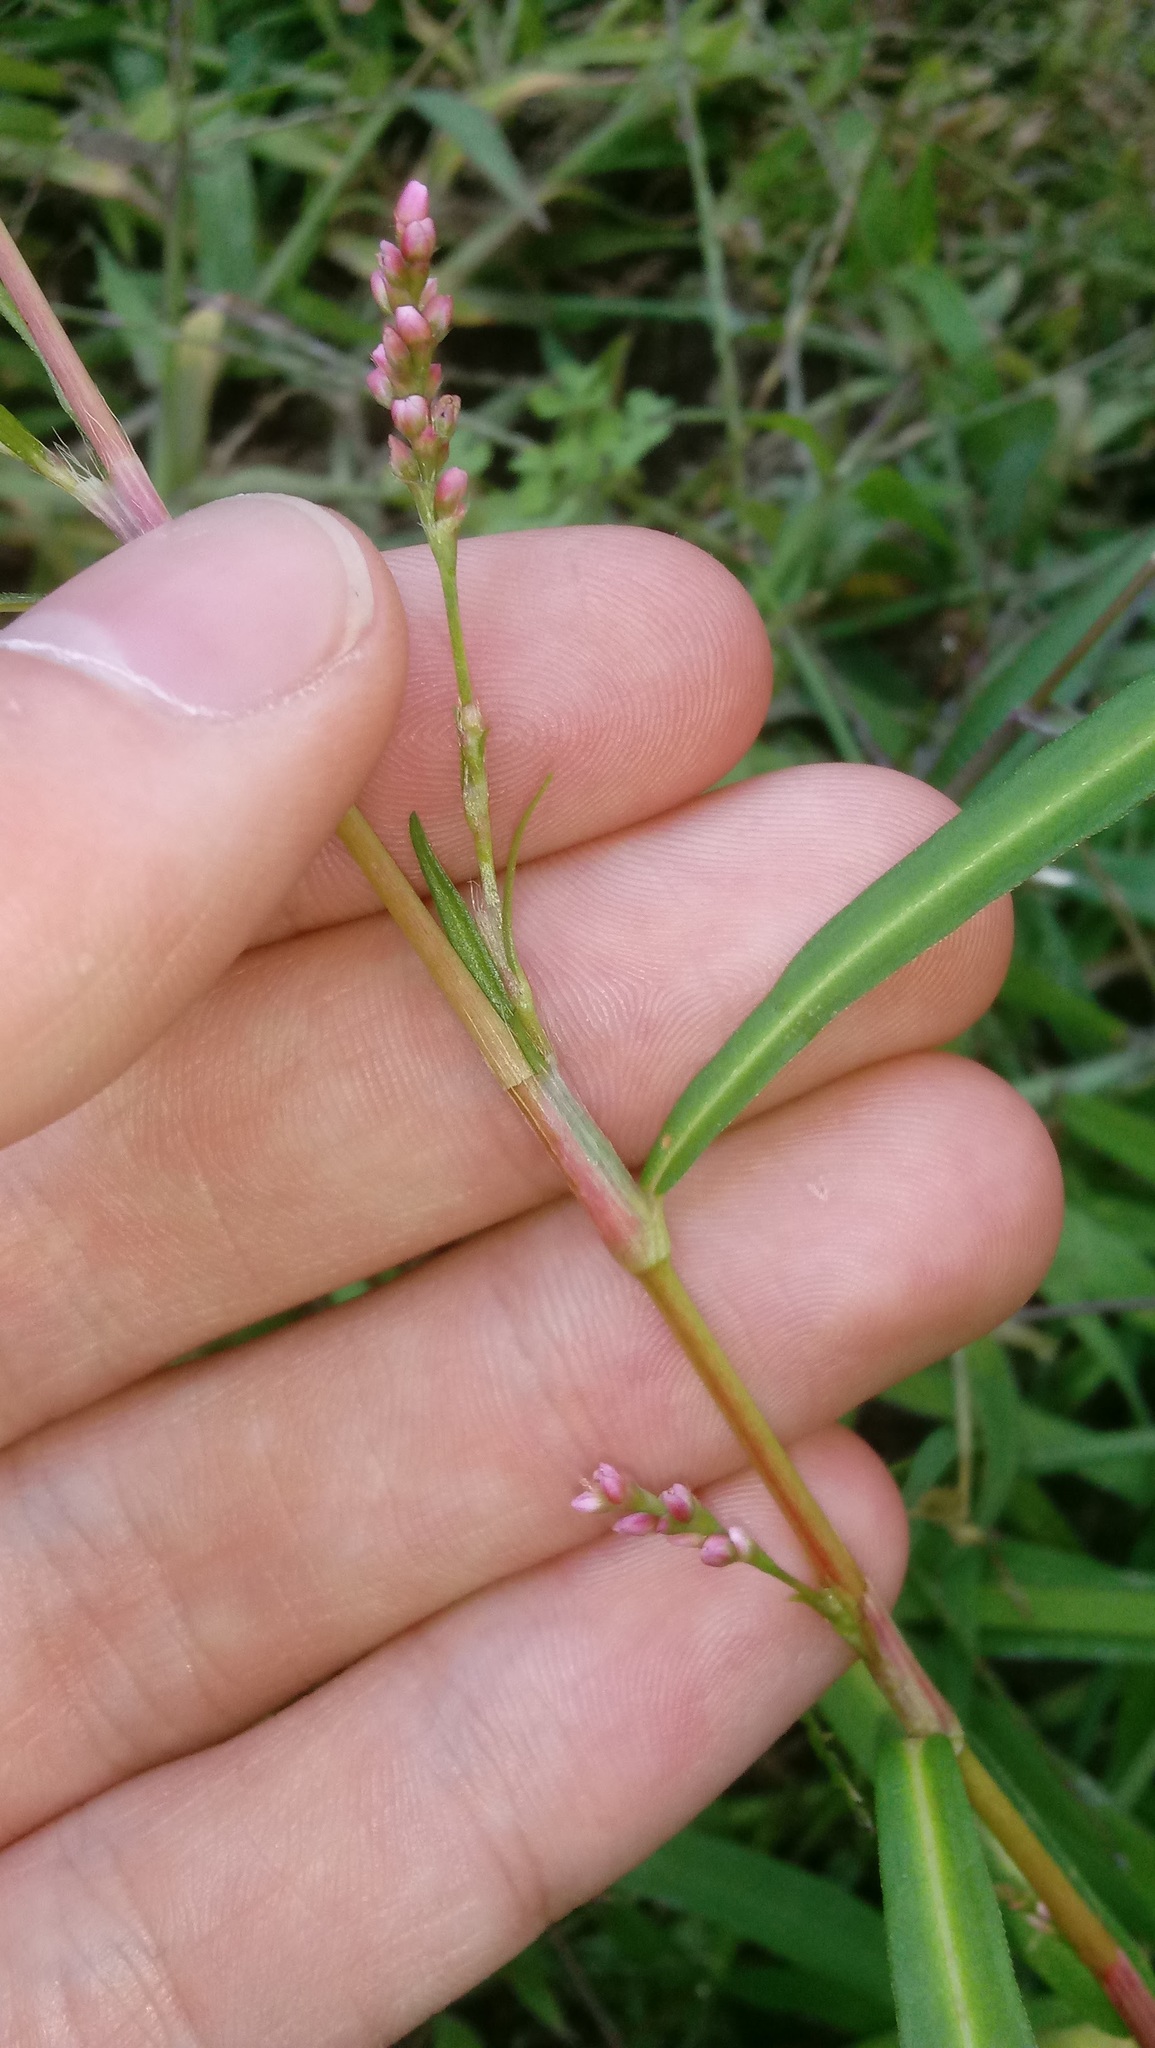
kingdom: Plantae
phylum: Tracheophyta
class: Magnoliopsida
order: Caryophyllales
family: Polygonaceae
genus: Persicaria
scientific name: Persicaria minor
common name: Small water-pepper
